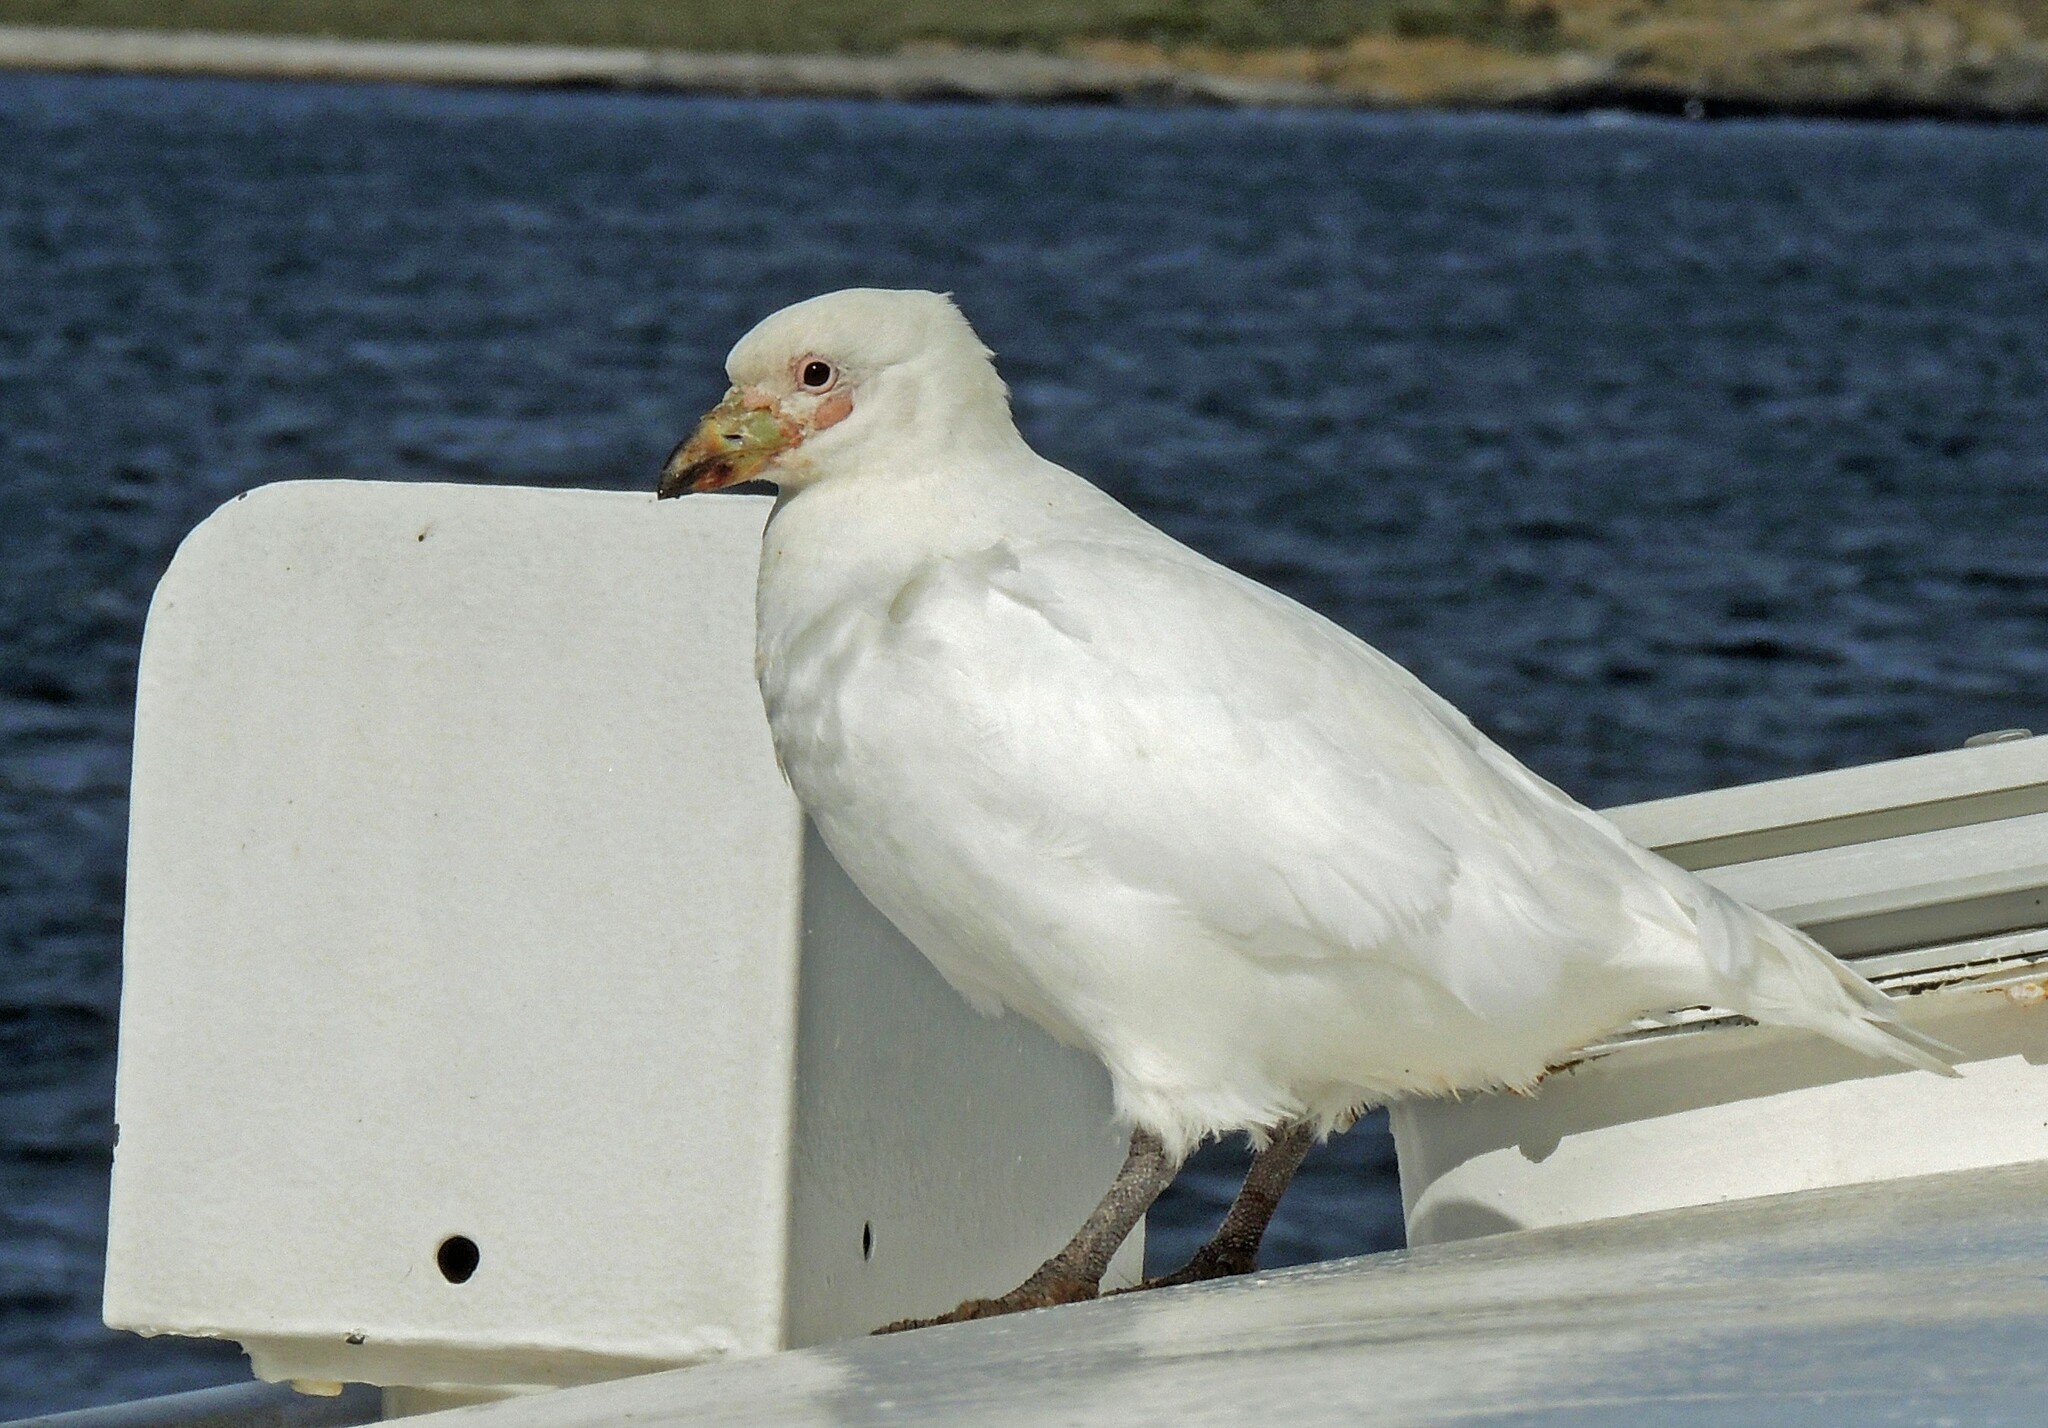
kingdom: Animalia
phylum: Chordata
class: Aves
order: Charadriiformes
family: Chionidae
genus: Chionis
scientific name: Chionis albus
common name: Snowy sheathbill
